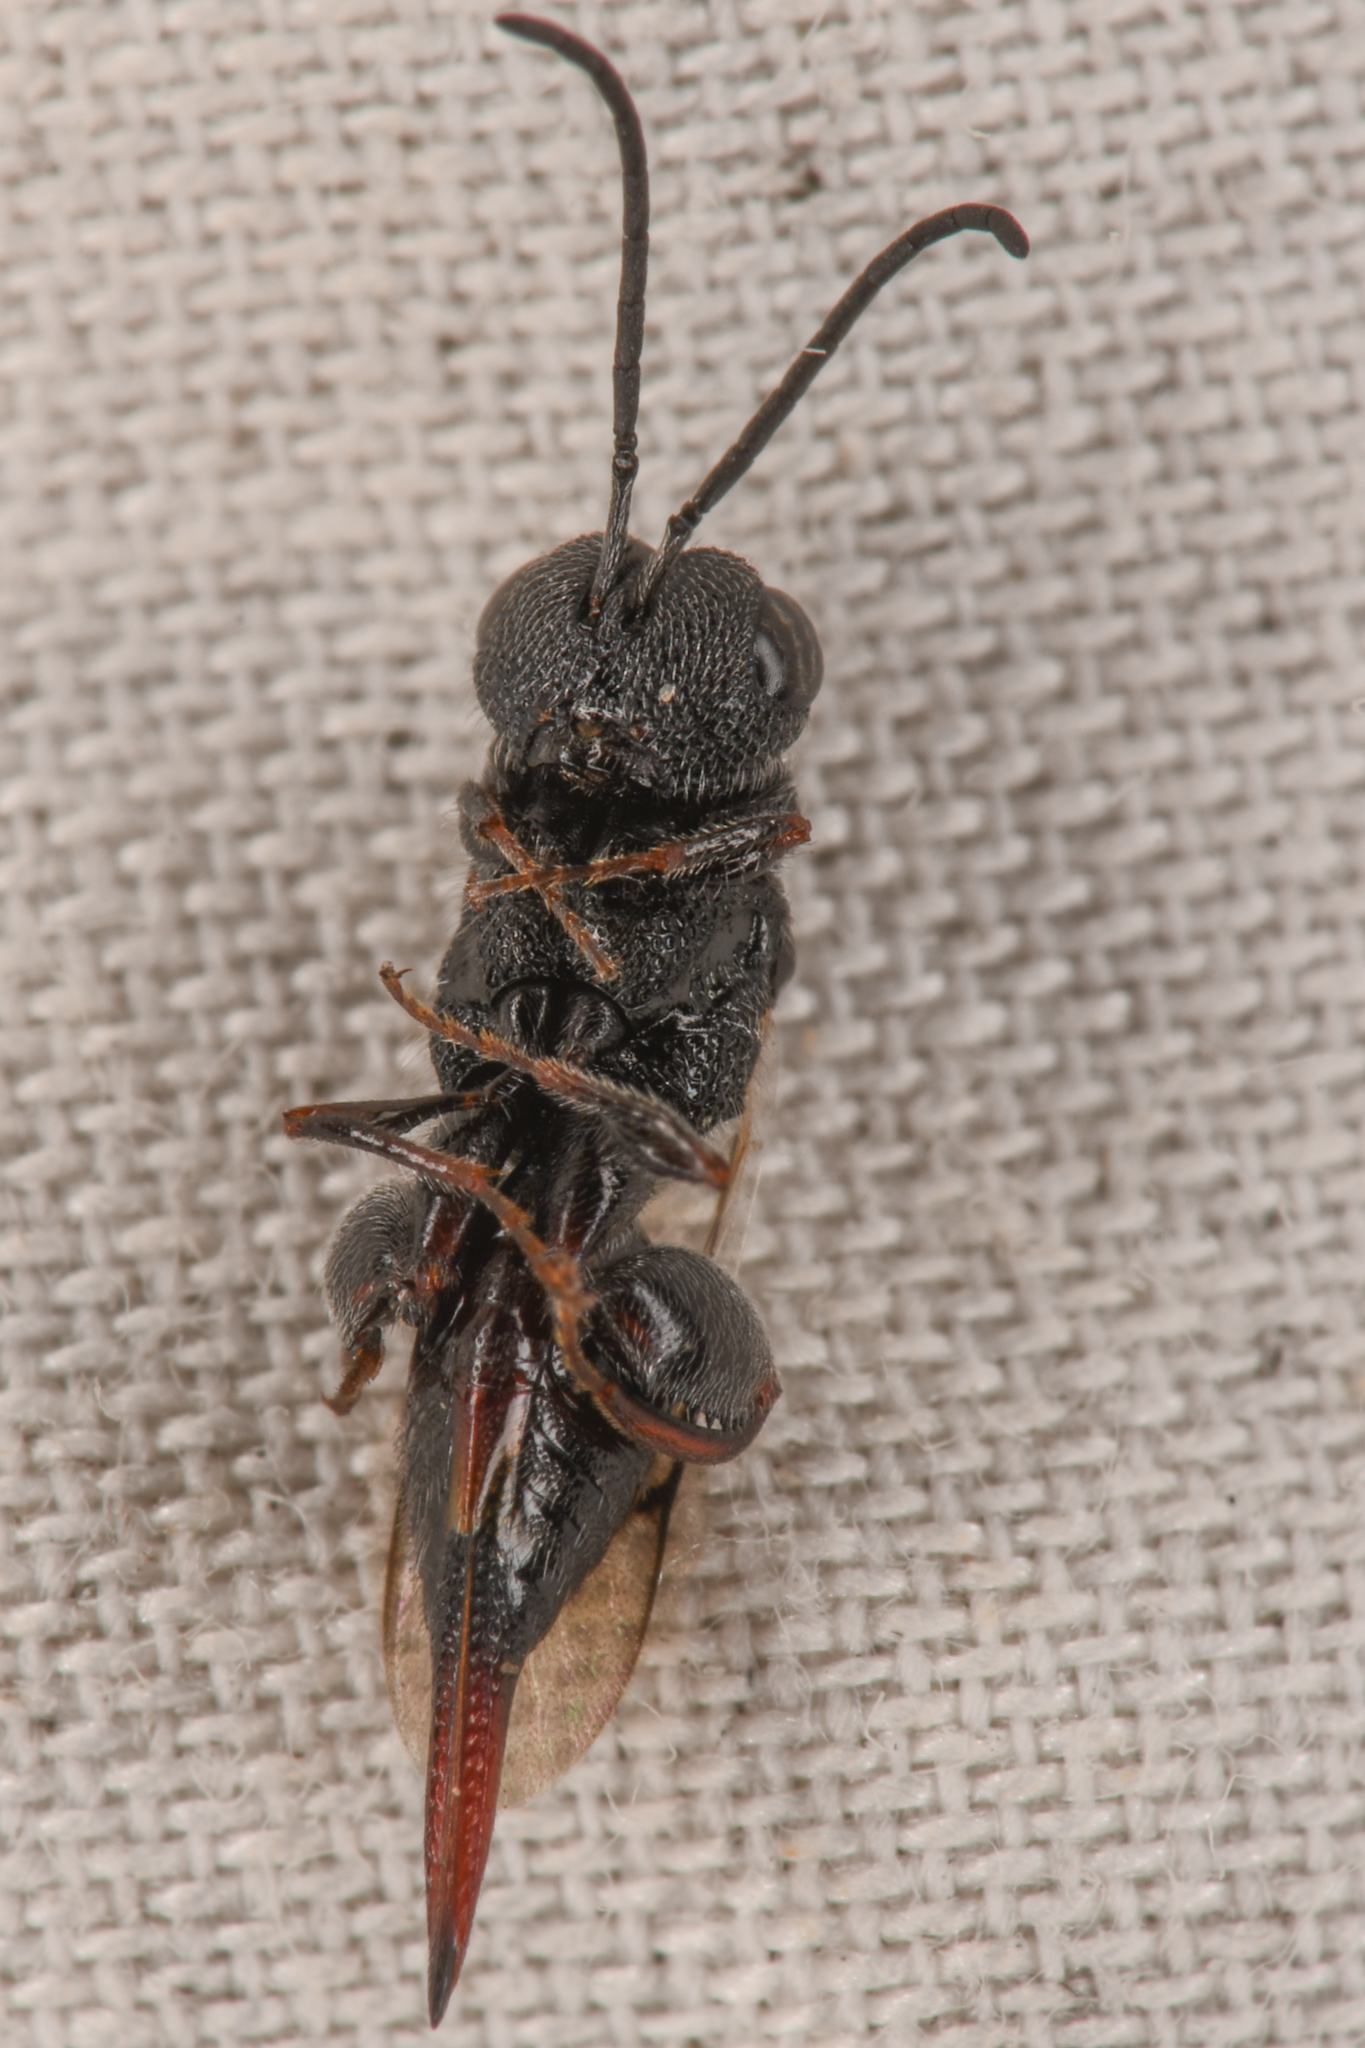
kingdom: Animalia
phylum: Arthropoda
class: Insecta
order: Hymenoptera
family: Chalcididae
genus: Phasgonophora
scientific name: Phasgonophora sulcata
